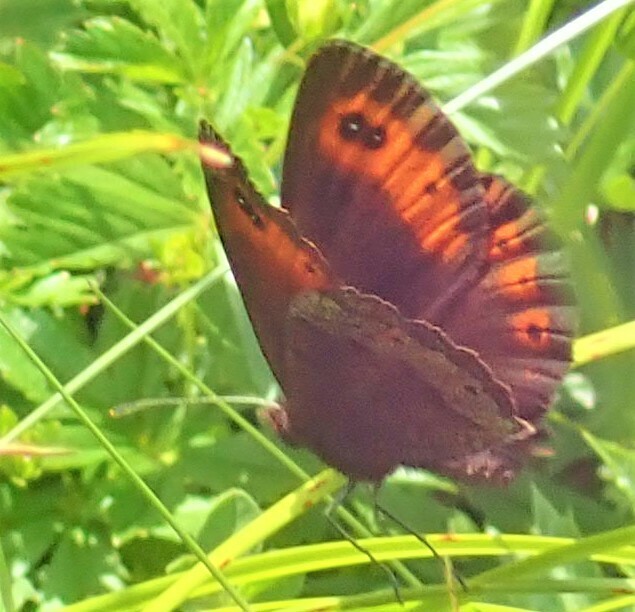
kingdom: Animalia
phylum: Arthropoda
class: Insecta
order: Lepidoptera
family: Nymphalidae
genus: Erebia
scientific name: Erebia aethiops
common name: Scotch argus
